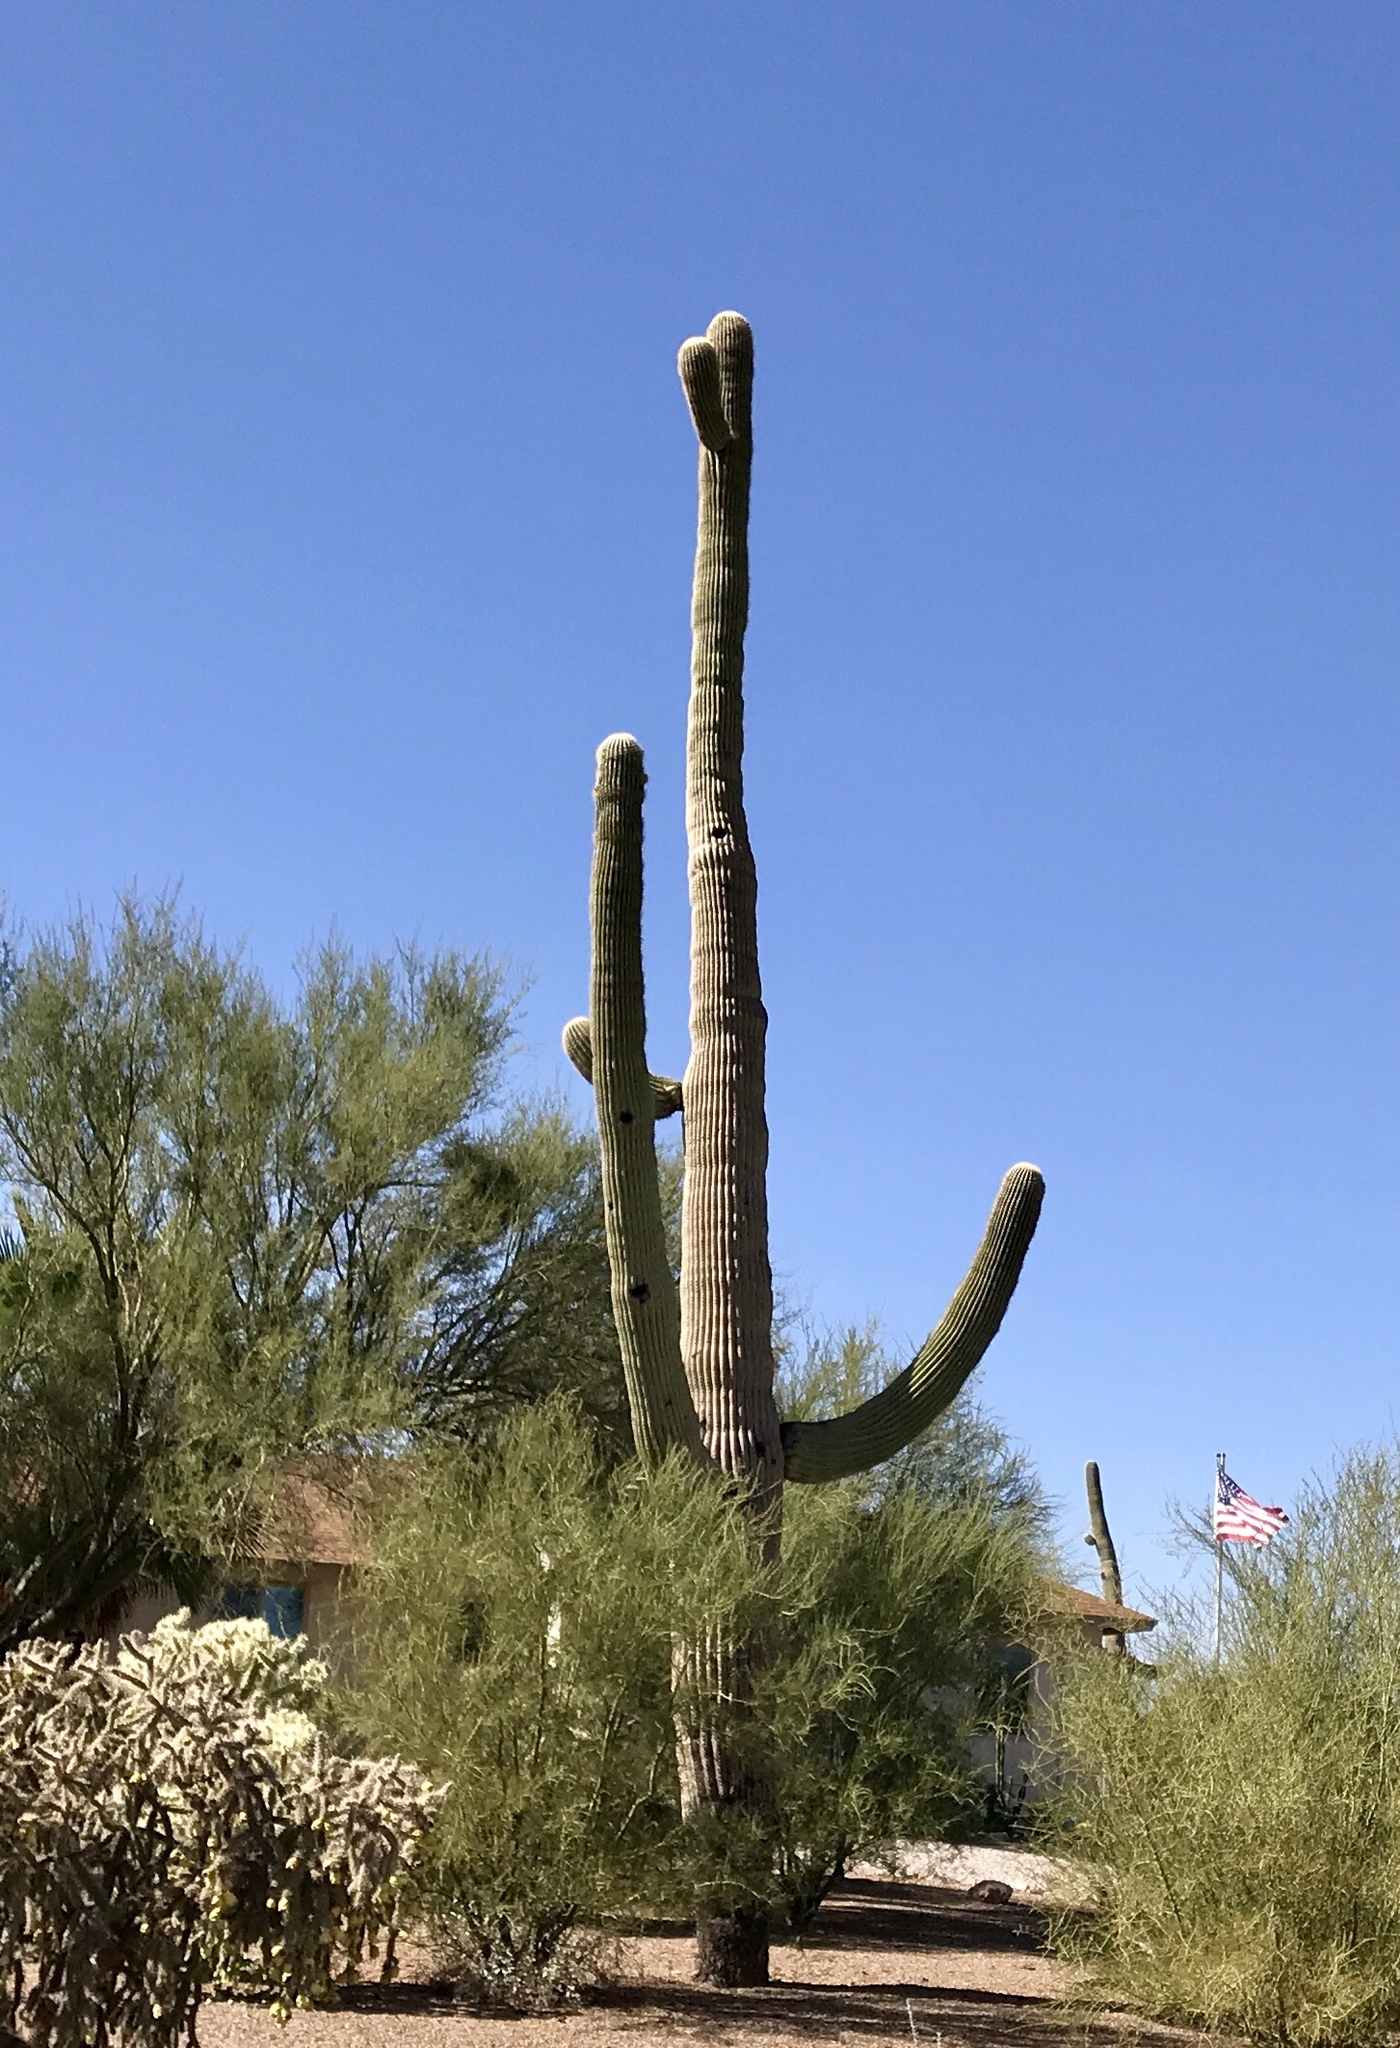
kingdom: Plantae
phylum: Tracheophyta
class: Magnoliopsida
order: Caryophyllales
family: Cactaceae
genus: Carnegiea
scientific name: Carnegiea gigantea
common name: Saguaro
